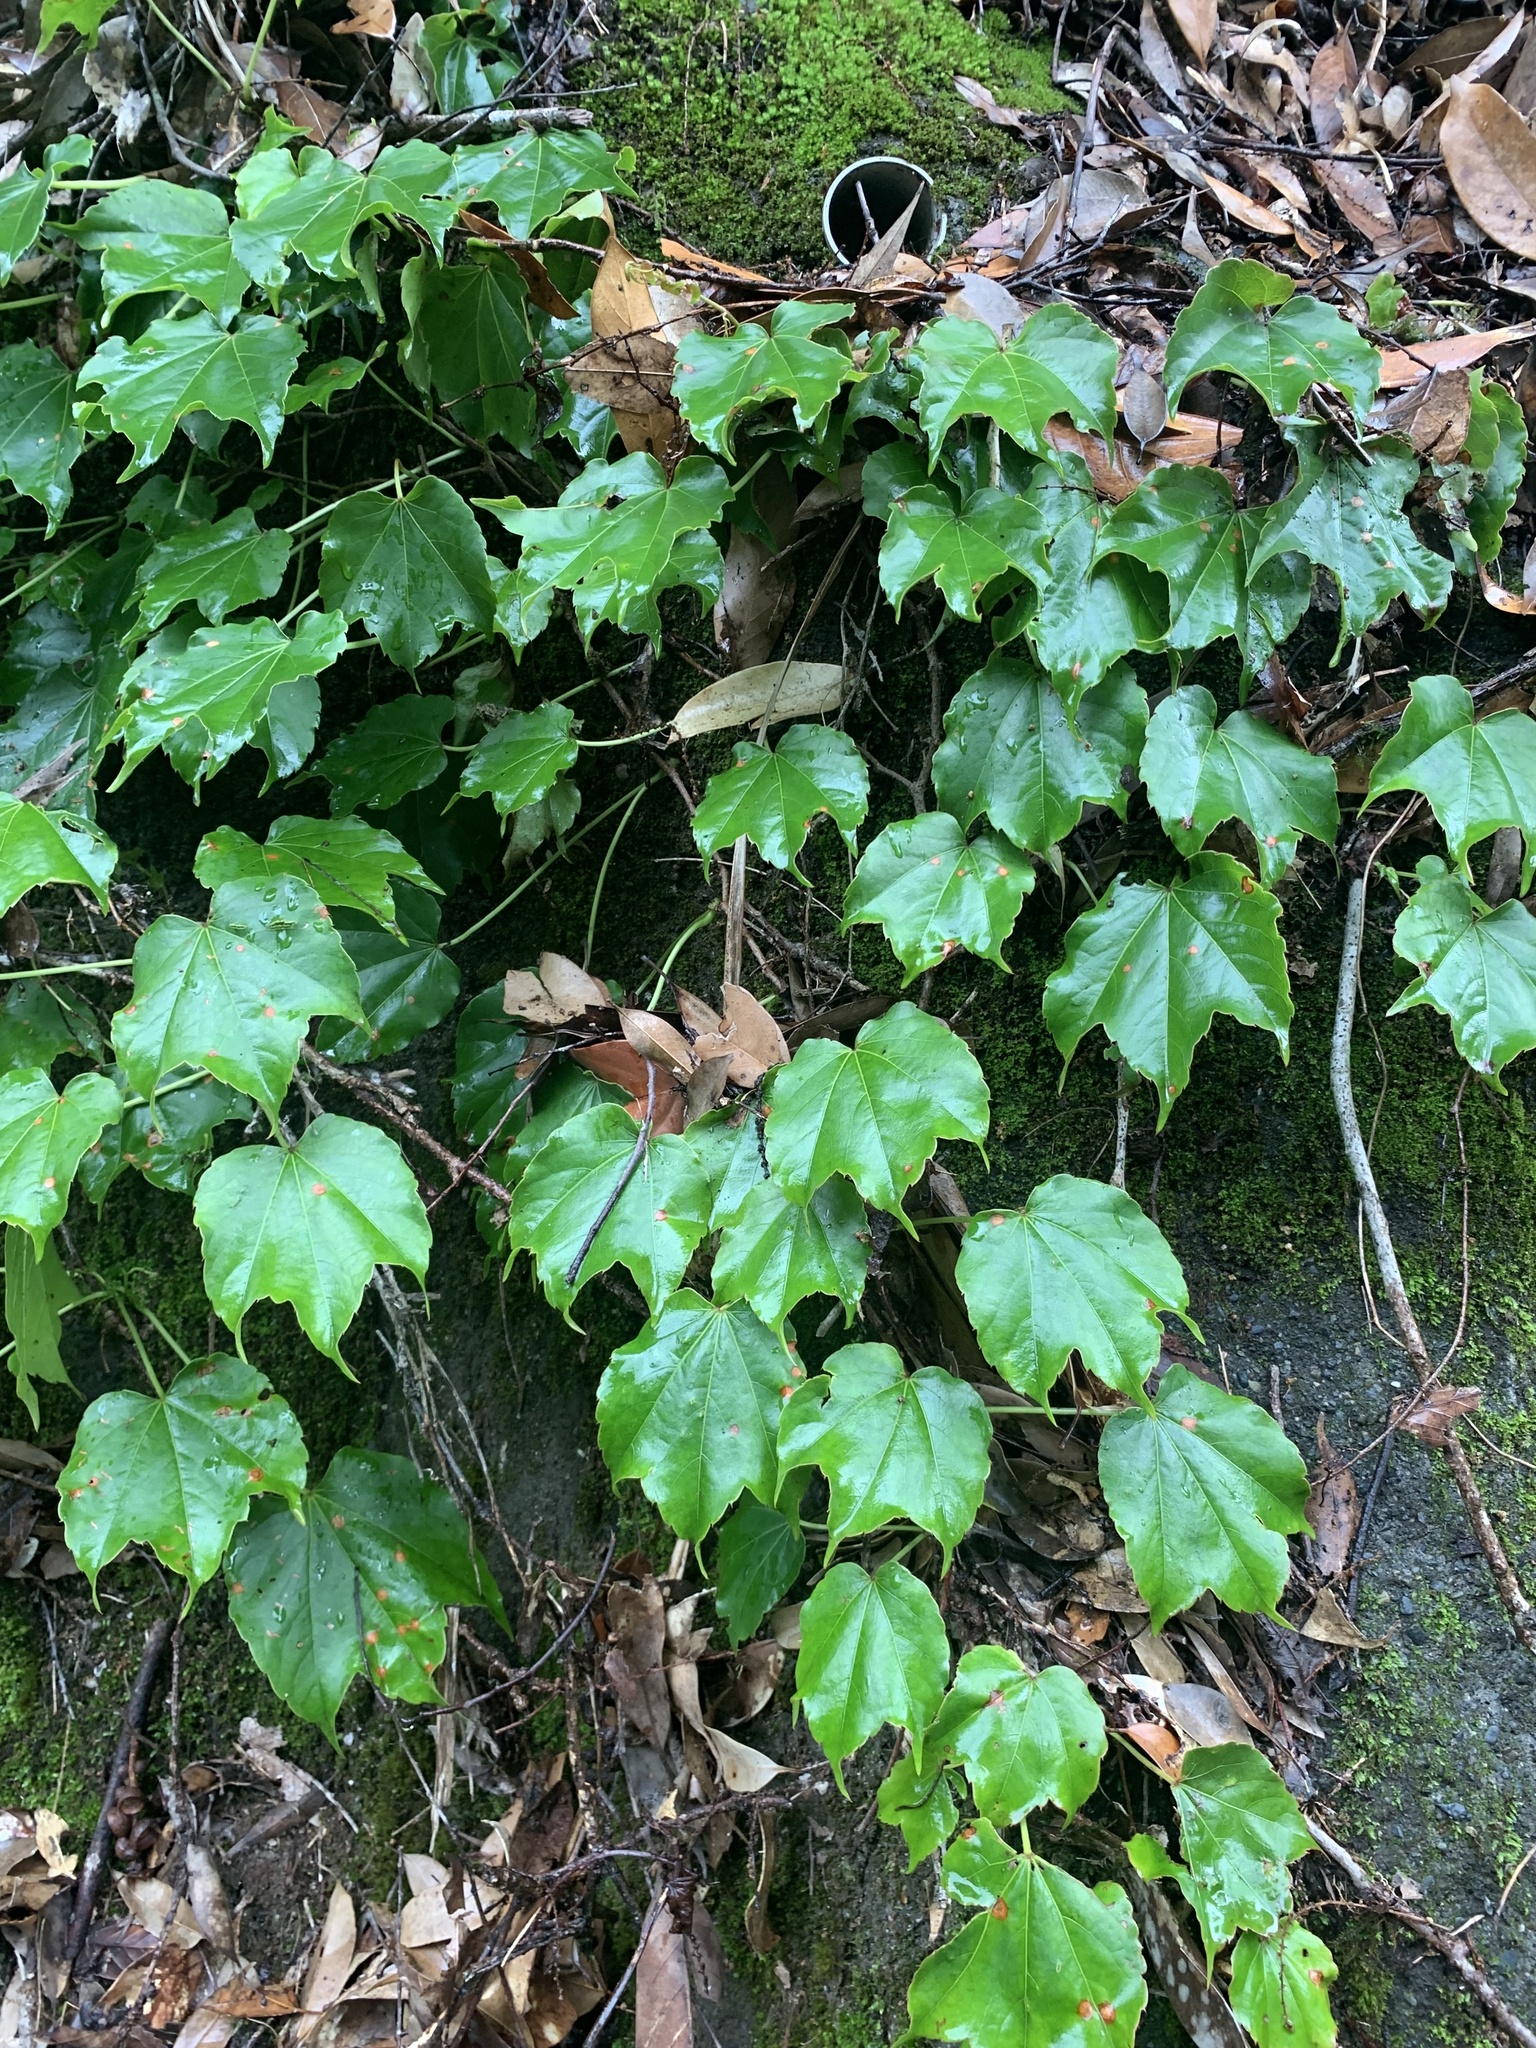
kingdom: Plantae
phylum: Tracheophyta
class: Magnoliopsida
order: Vitales
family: Vitaceae
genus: Parthenocissus
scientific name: Parthenocissus tricuspidata
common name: Boston ivy
